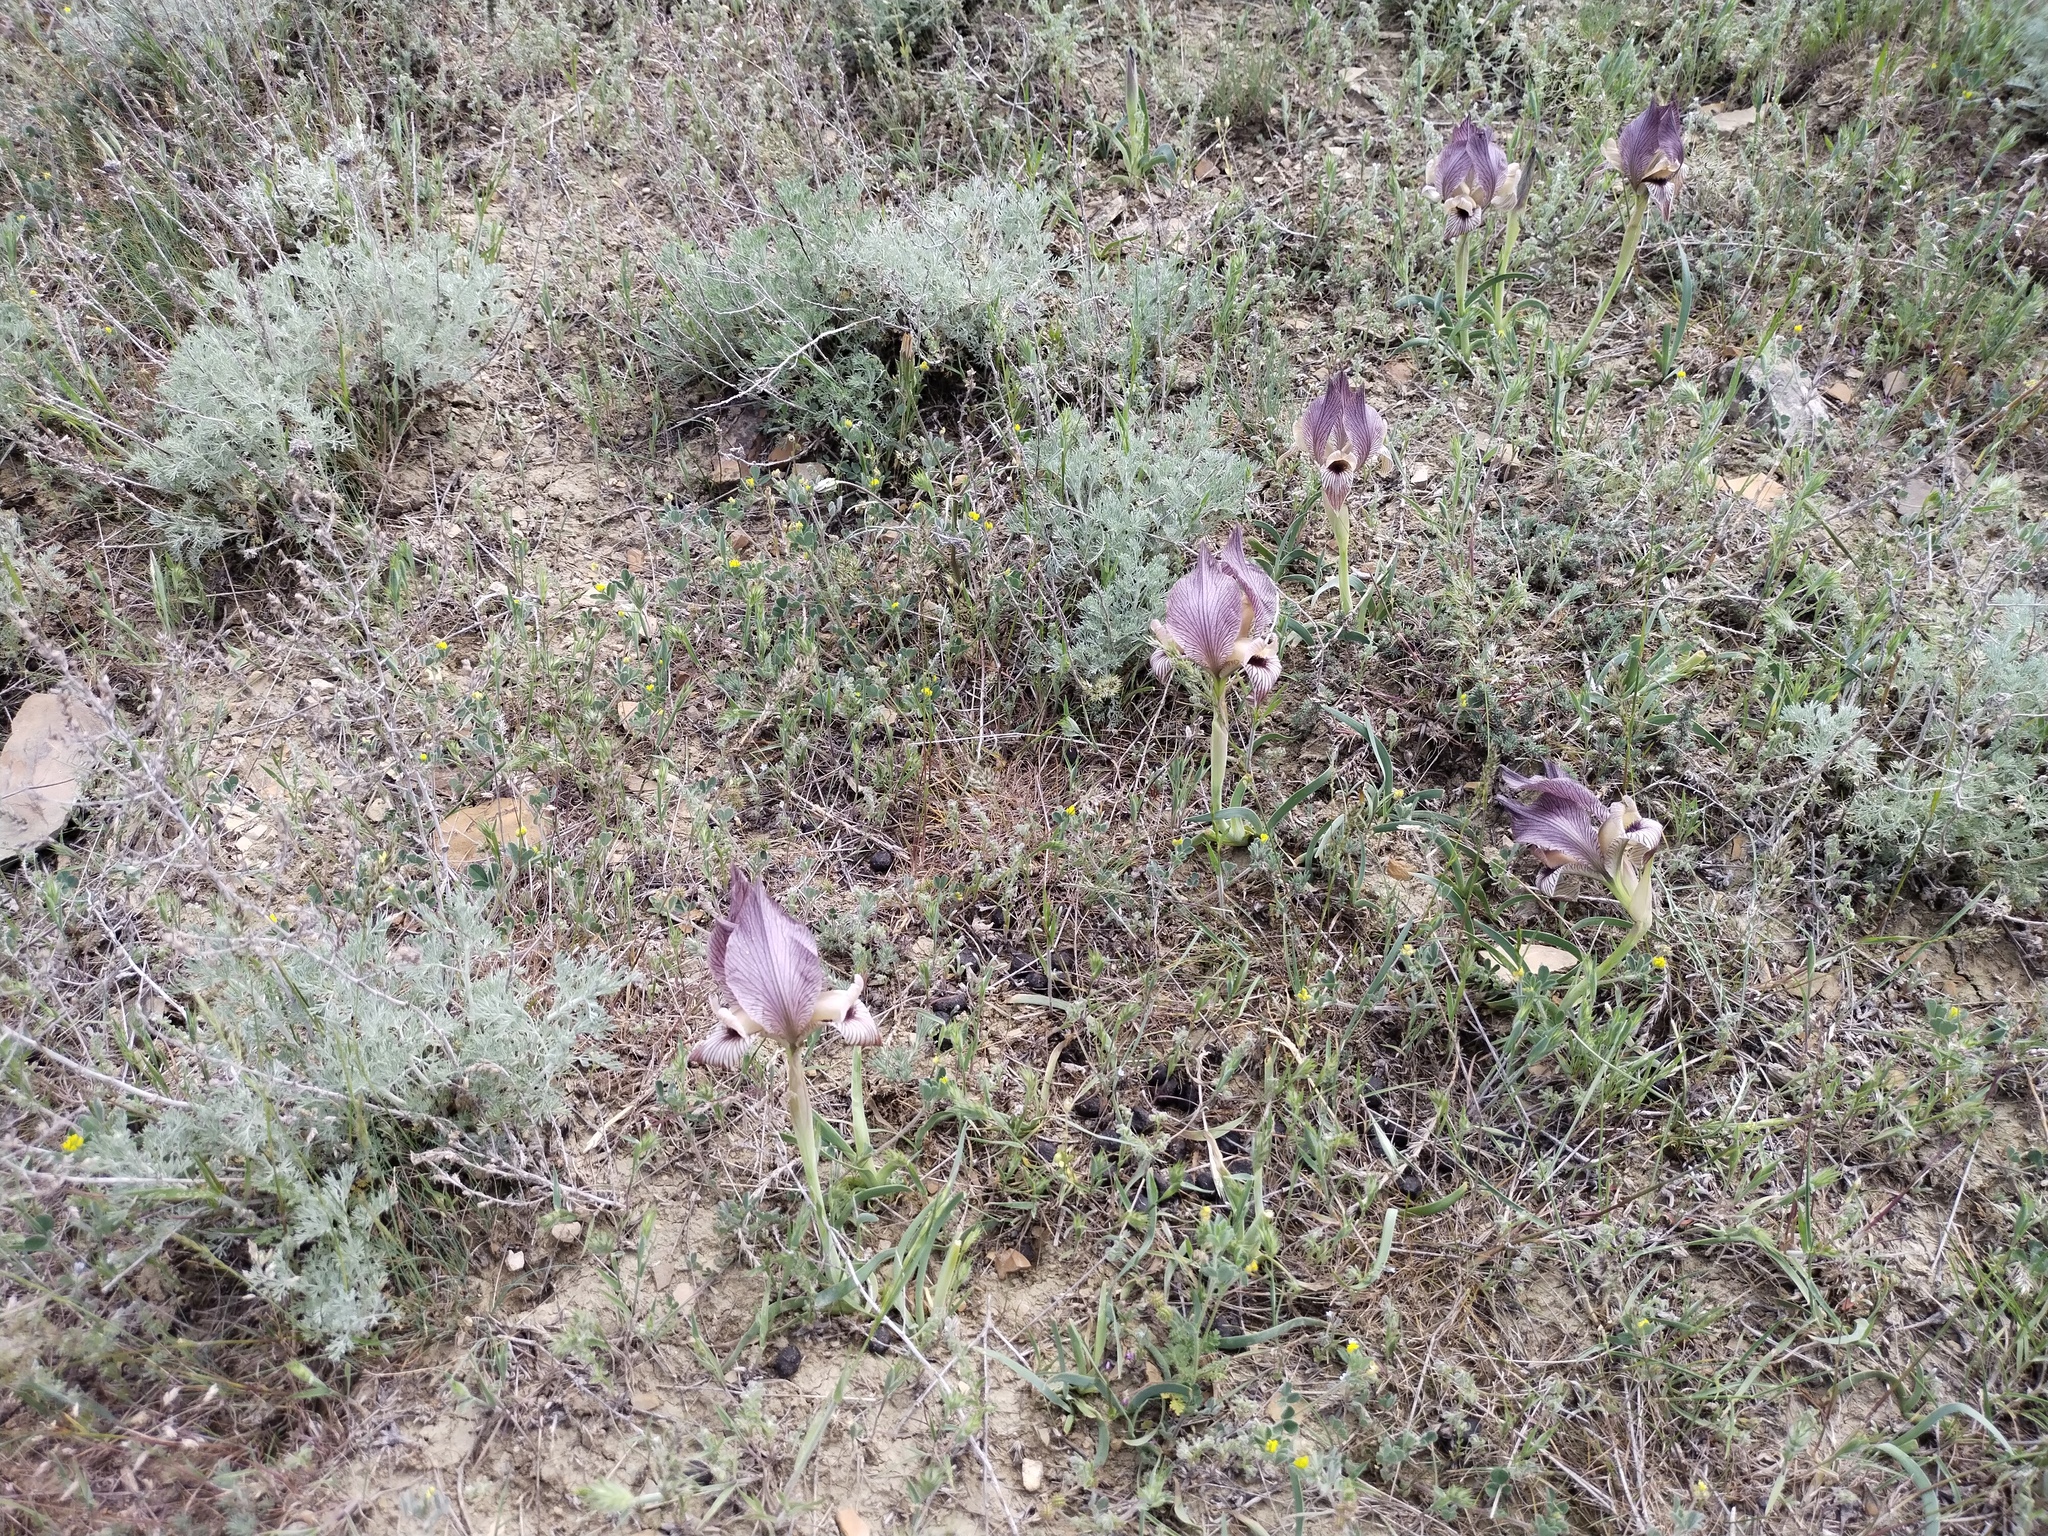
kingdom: Plantae
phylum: Tracheophyta
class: Liliopsida
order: Asparagales
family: Iridaceae
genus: Iris
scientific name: Iris acutiloba
